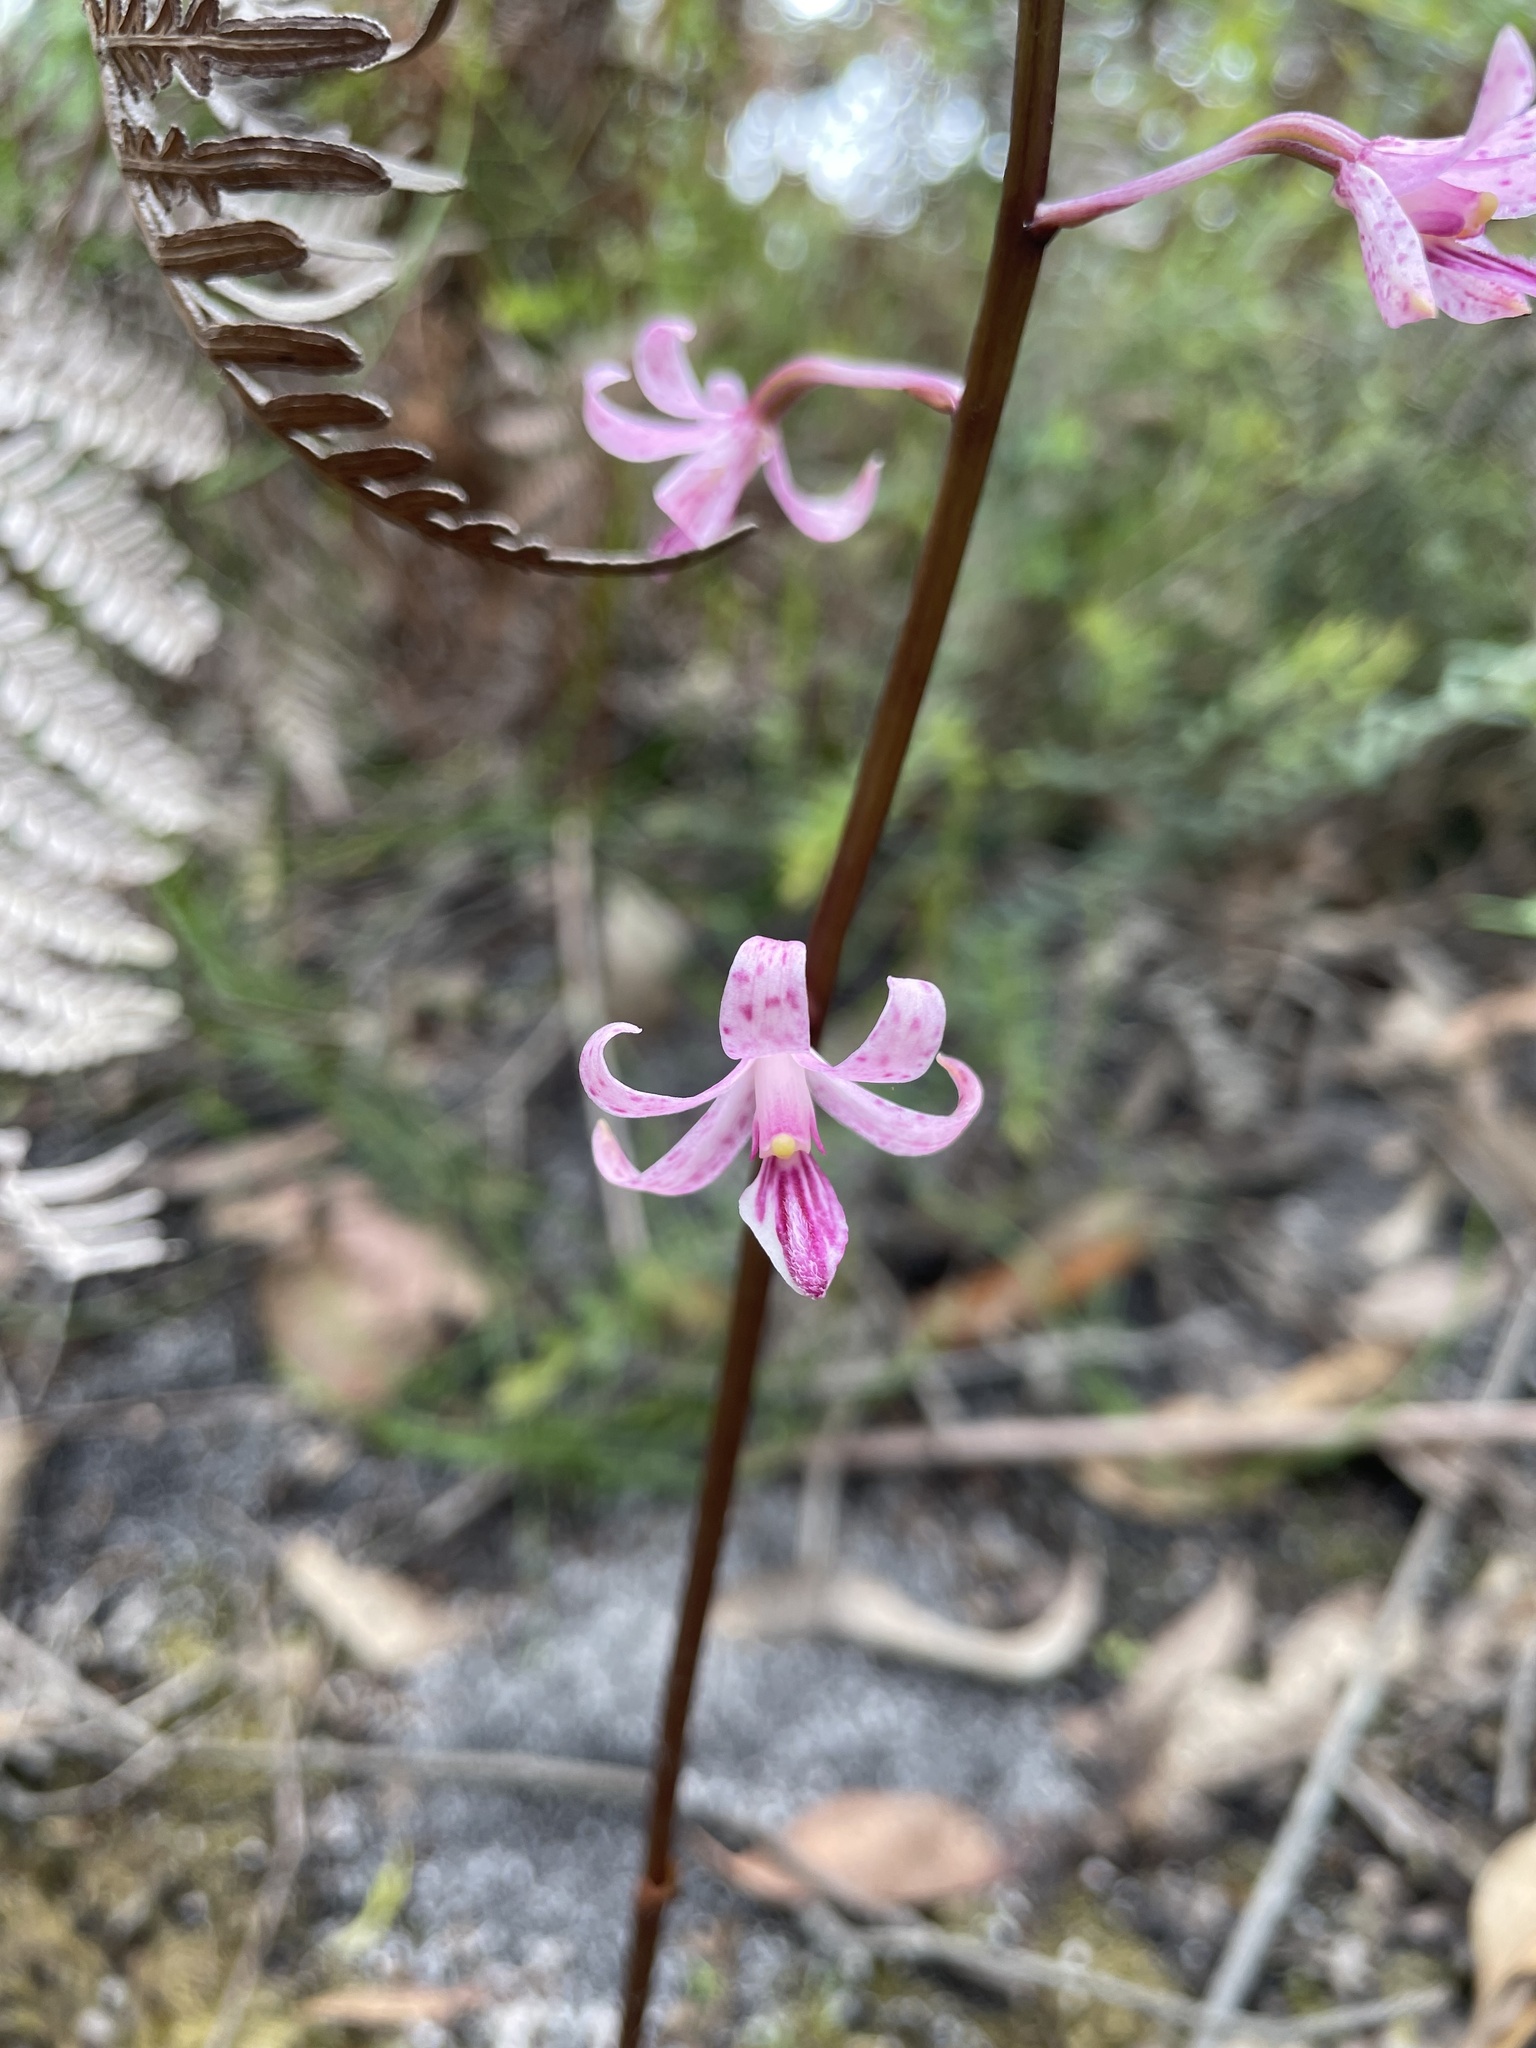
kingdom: Plantae
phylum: Tracheophyta
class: Liliopsida
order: Asparagales
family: Orchidaceae
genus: Dipodium
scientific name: Dipodium roseum
